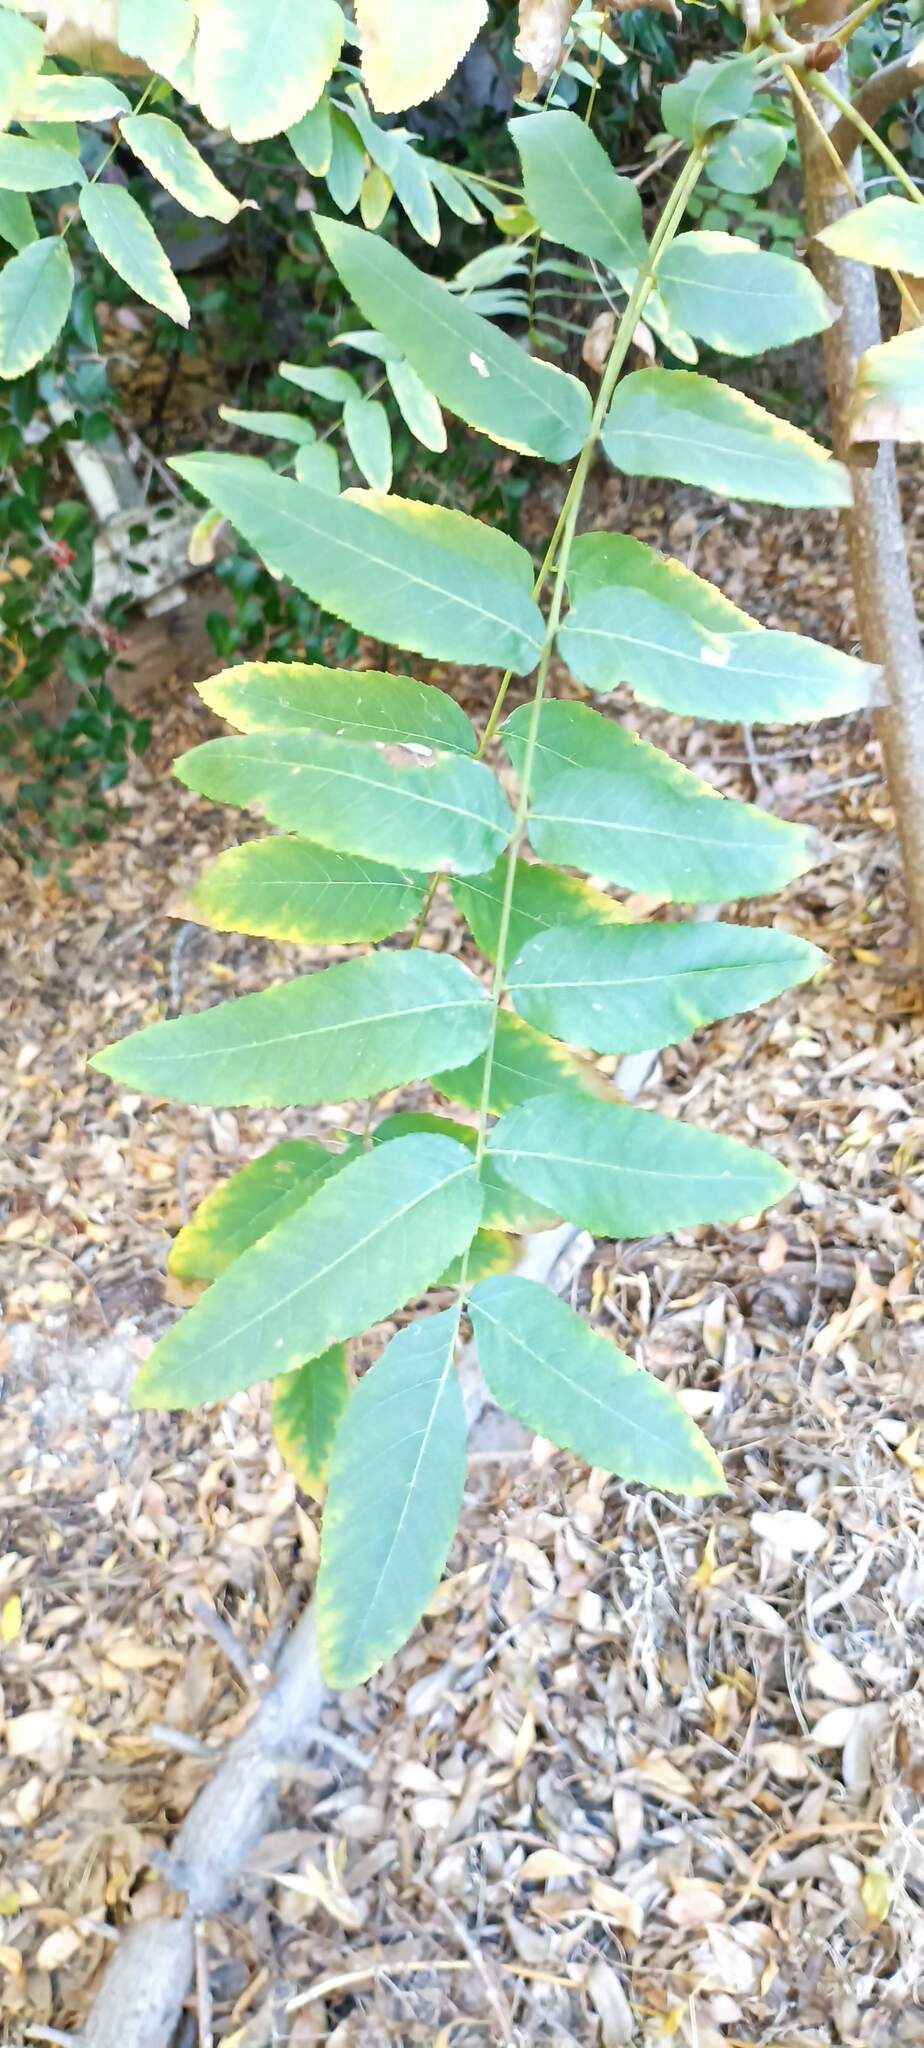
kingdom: Plantae
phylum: Tracheophyta
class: Magnoliopsida
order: Fagales
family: Juglandaceae
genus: Juglans
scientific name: Juglans californica
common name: Southern california black walnut
